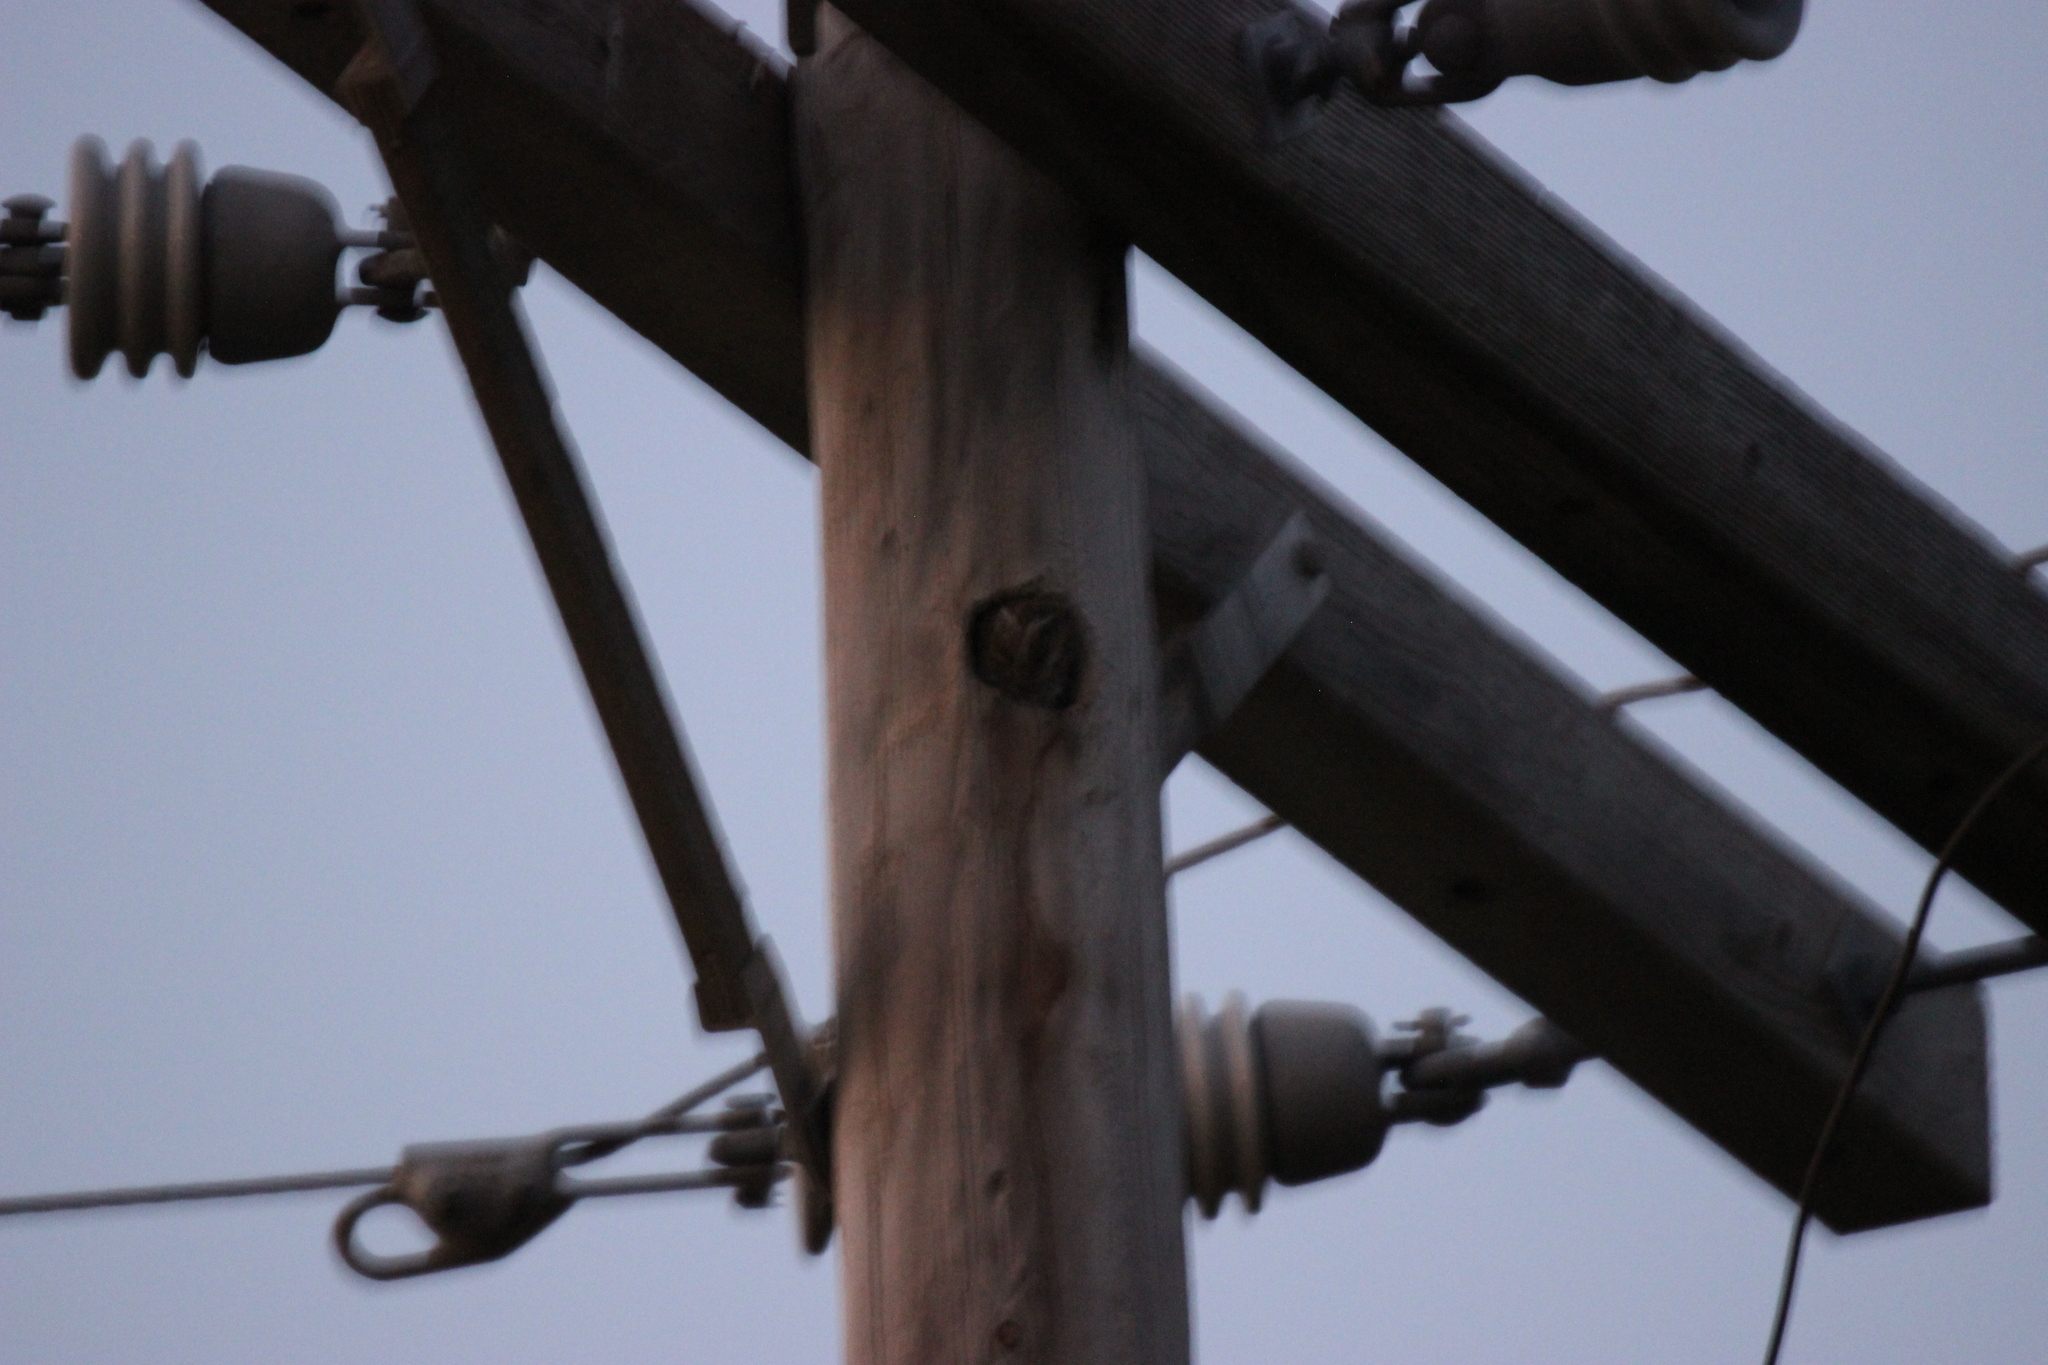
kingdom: Animalia
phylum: Chordata
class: Aves
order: Strigiformes
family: Strigidae
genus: Micrathene
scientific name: Micrathene whitneyi
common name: Elf owl
